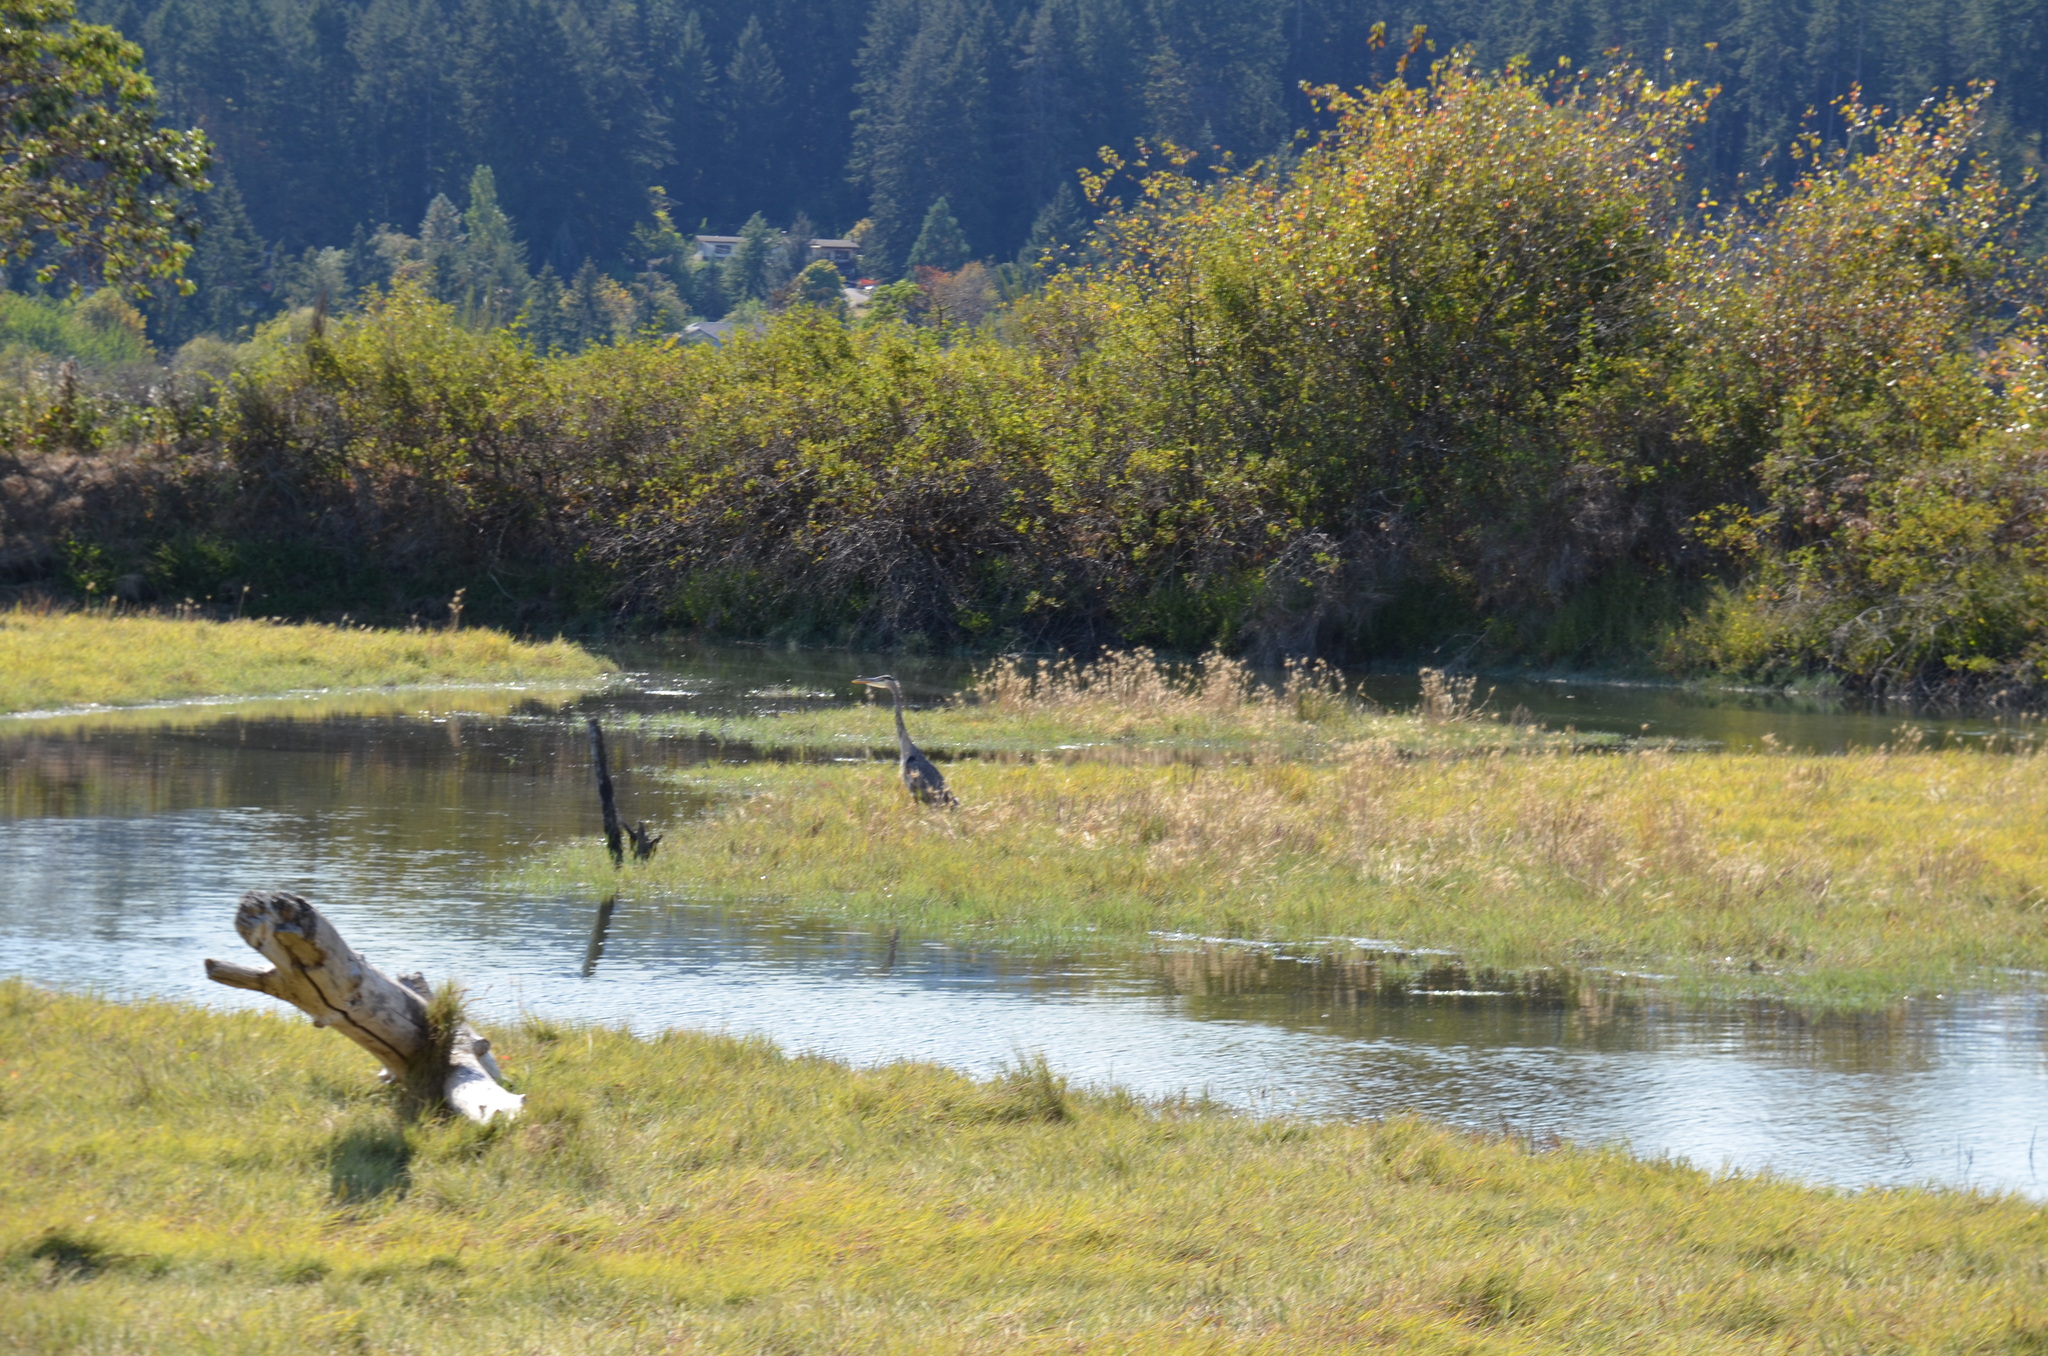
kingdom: Animalia
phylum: Chordata
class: Aves
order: Pelecaniformes
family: Ardeidae
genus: Ardea
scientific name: Ardea herodias
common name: Great blue heron
